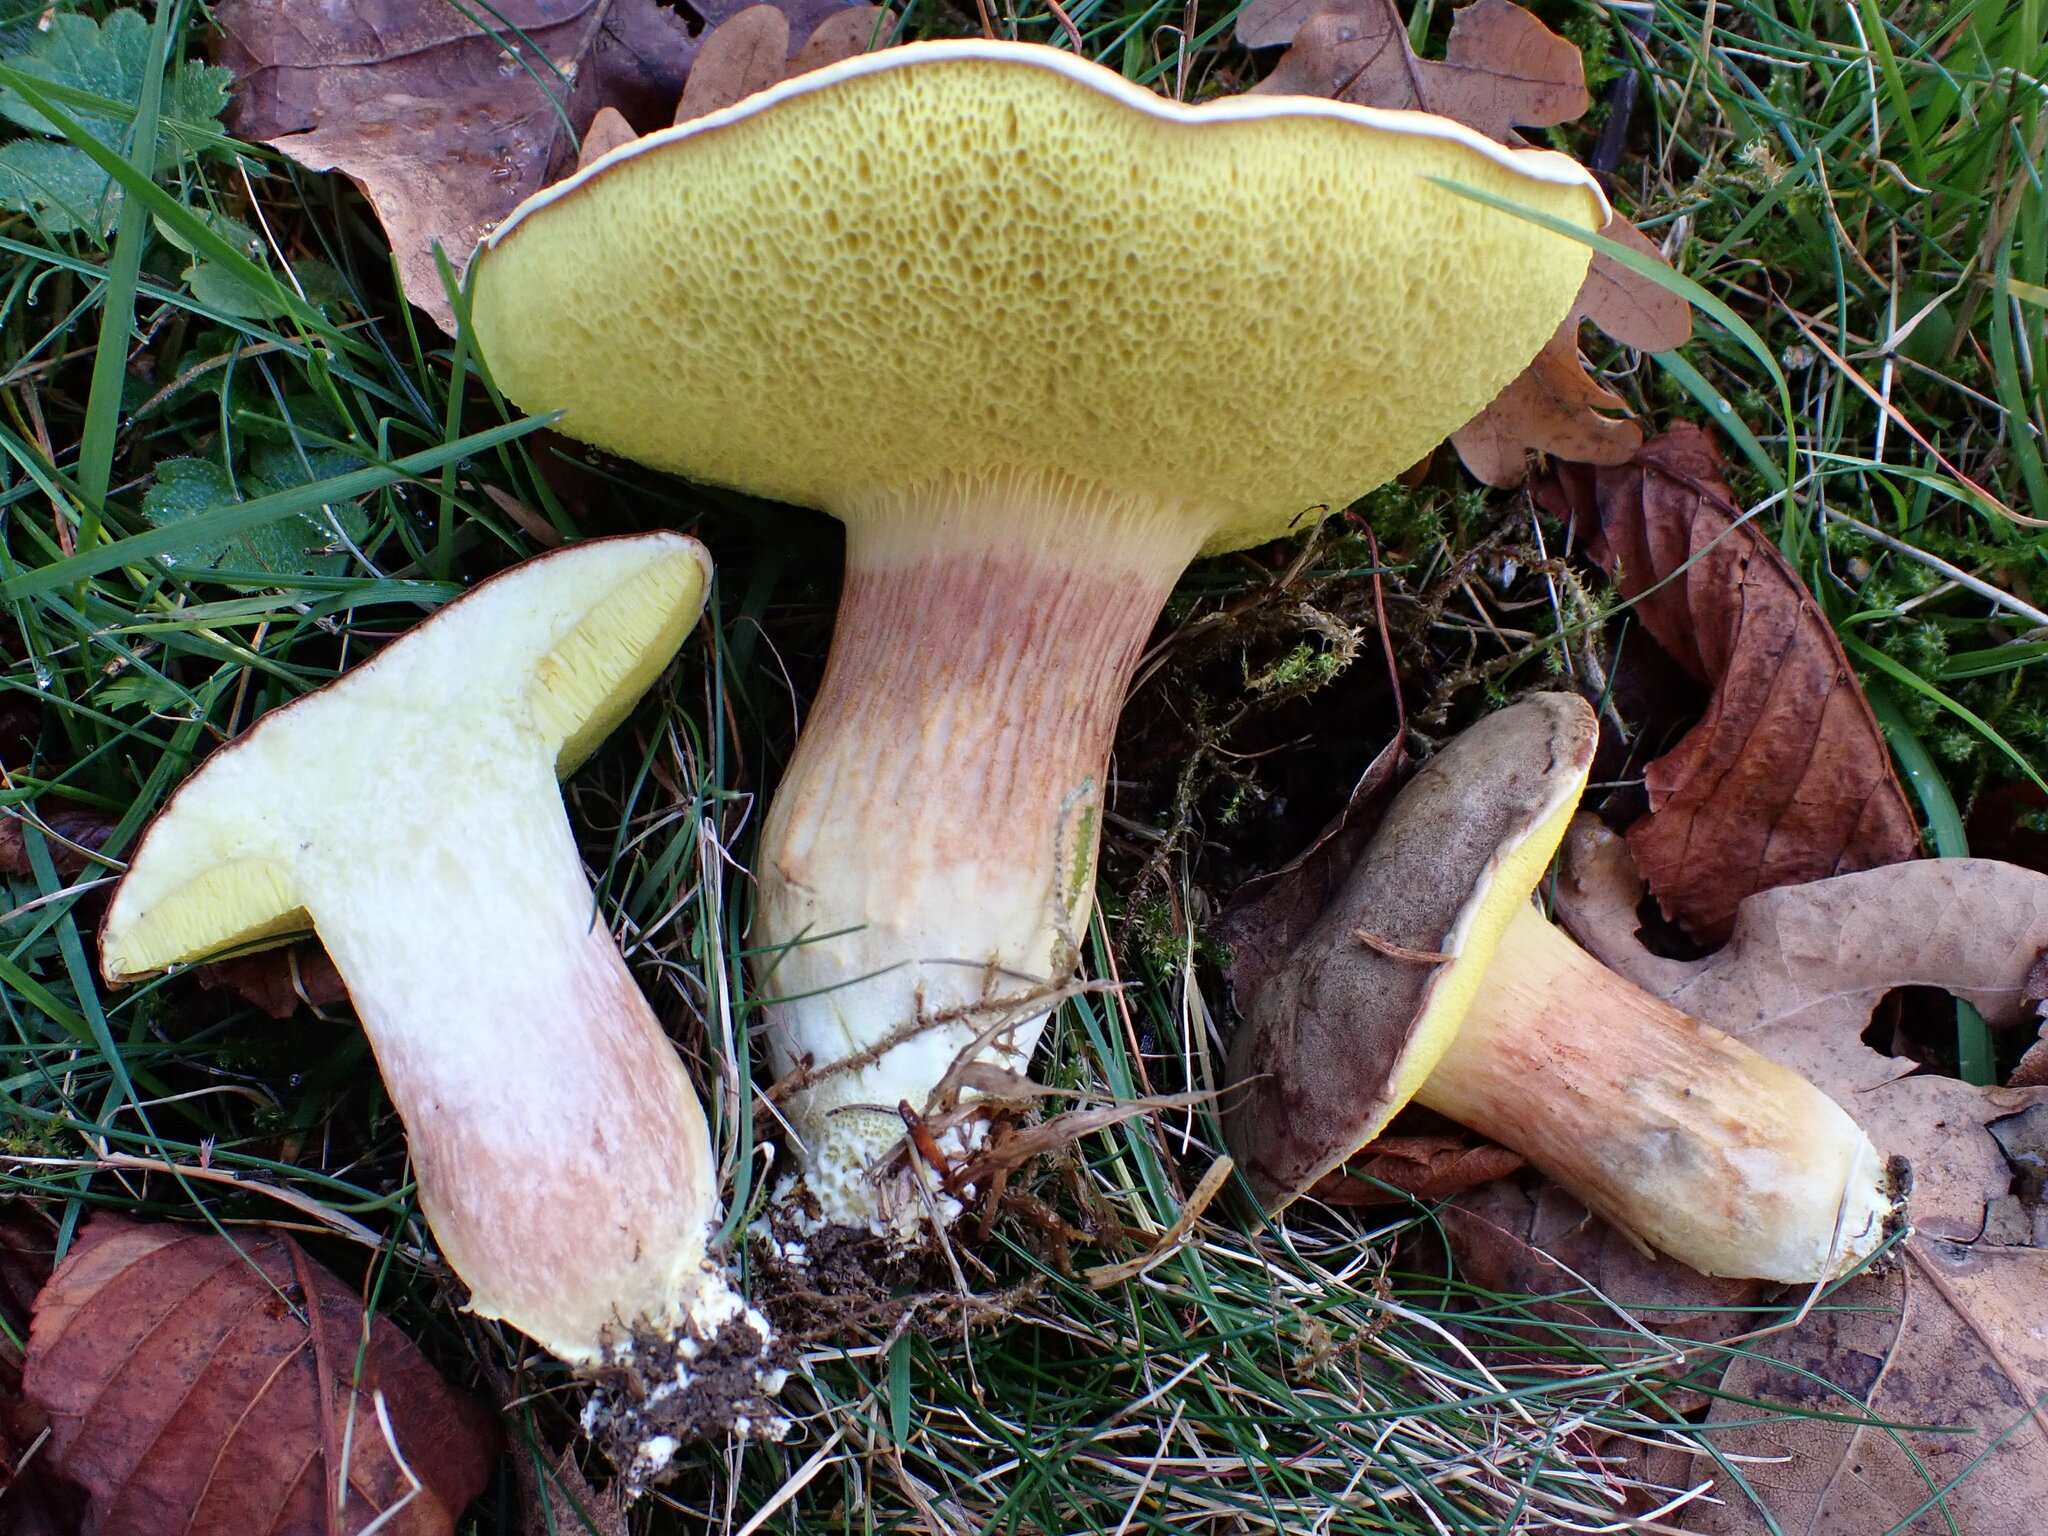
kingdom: Fungi
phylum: Basidiomycota
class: Agaricomycetes
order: Boletales
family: Boletaceae
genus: Xerocomus
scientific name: Xerocomus subtomentosus
